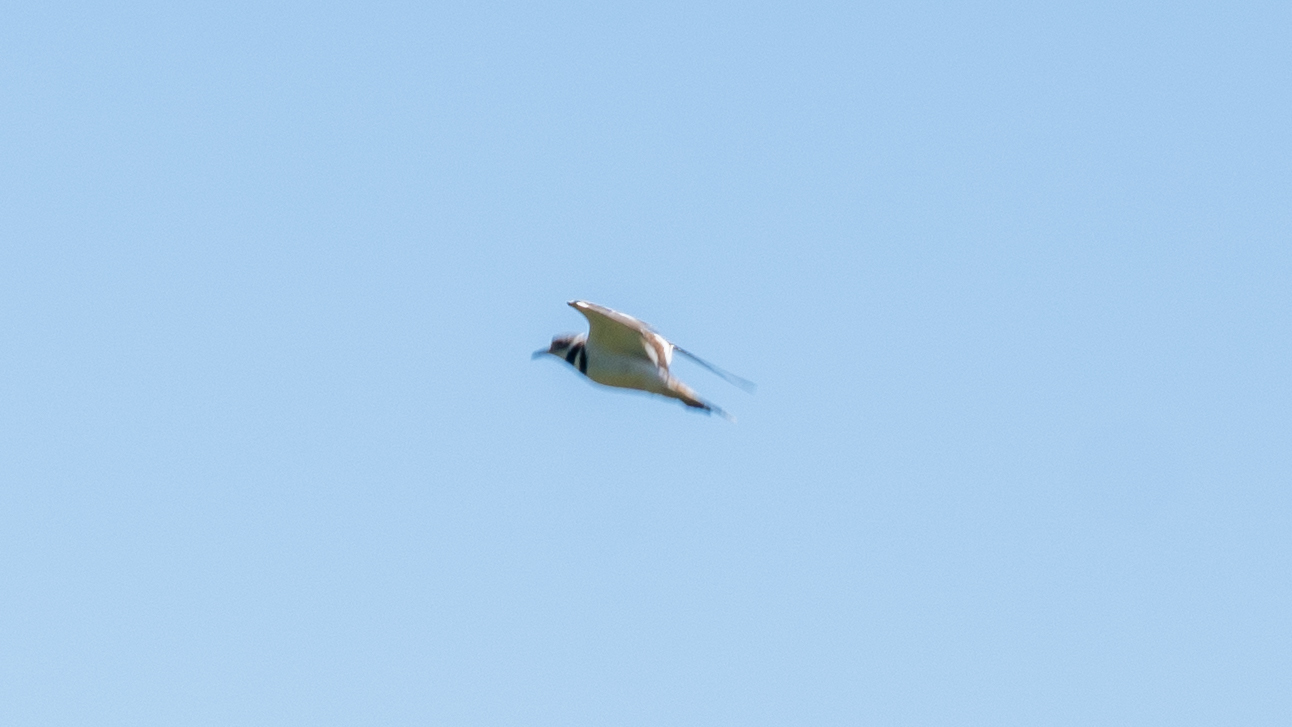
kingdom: Animalia
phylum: Chordata
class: Aves
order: Charadriiformes
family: Charadriidae
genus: Charadrius
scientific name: Charadrius vociferus
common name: Killdeer
